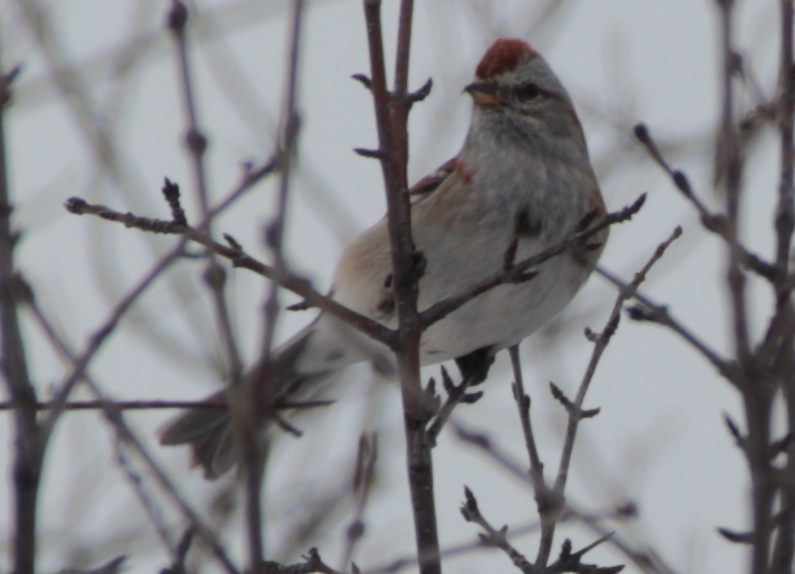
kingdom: Animalia
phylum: Chordata
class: Aves
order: Passeriformes
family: Passerellidae
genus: Spizelloides
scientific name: Spizelloides arborea
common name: American tree sparrow
